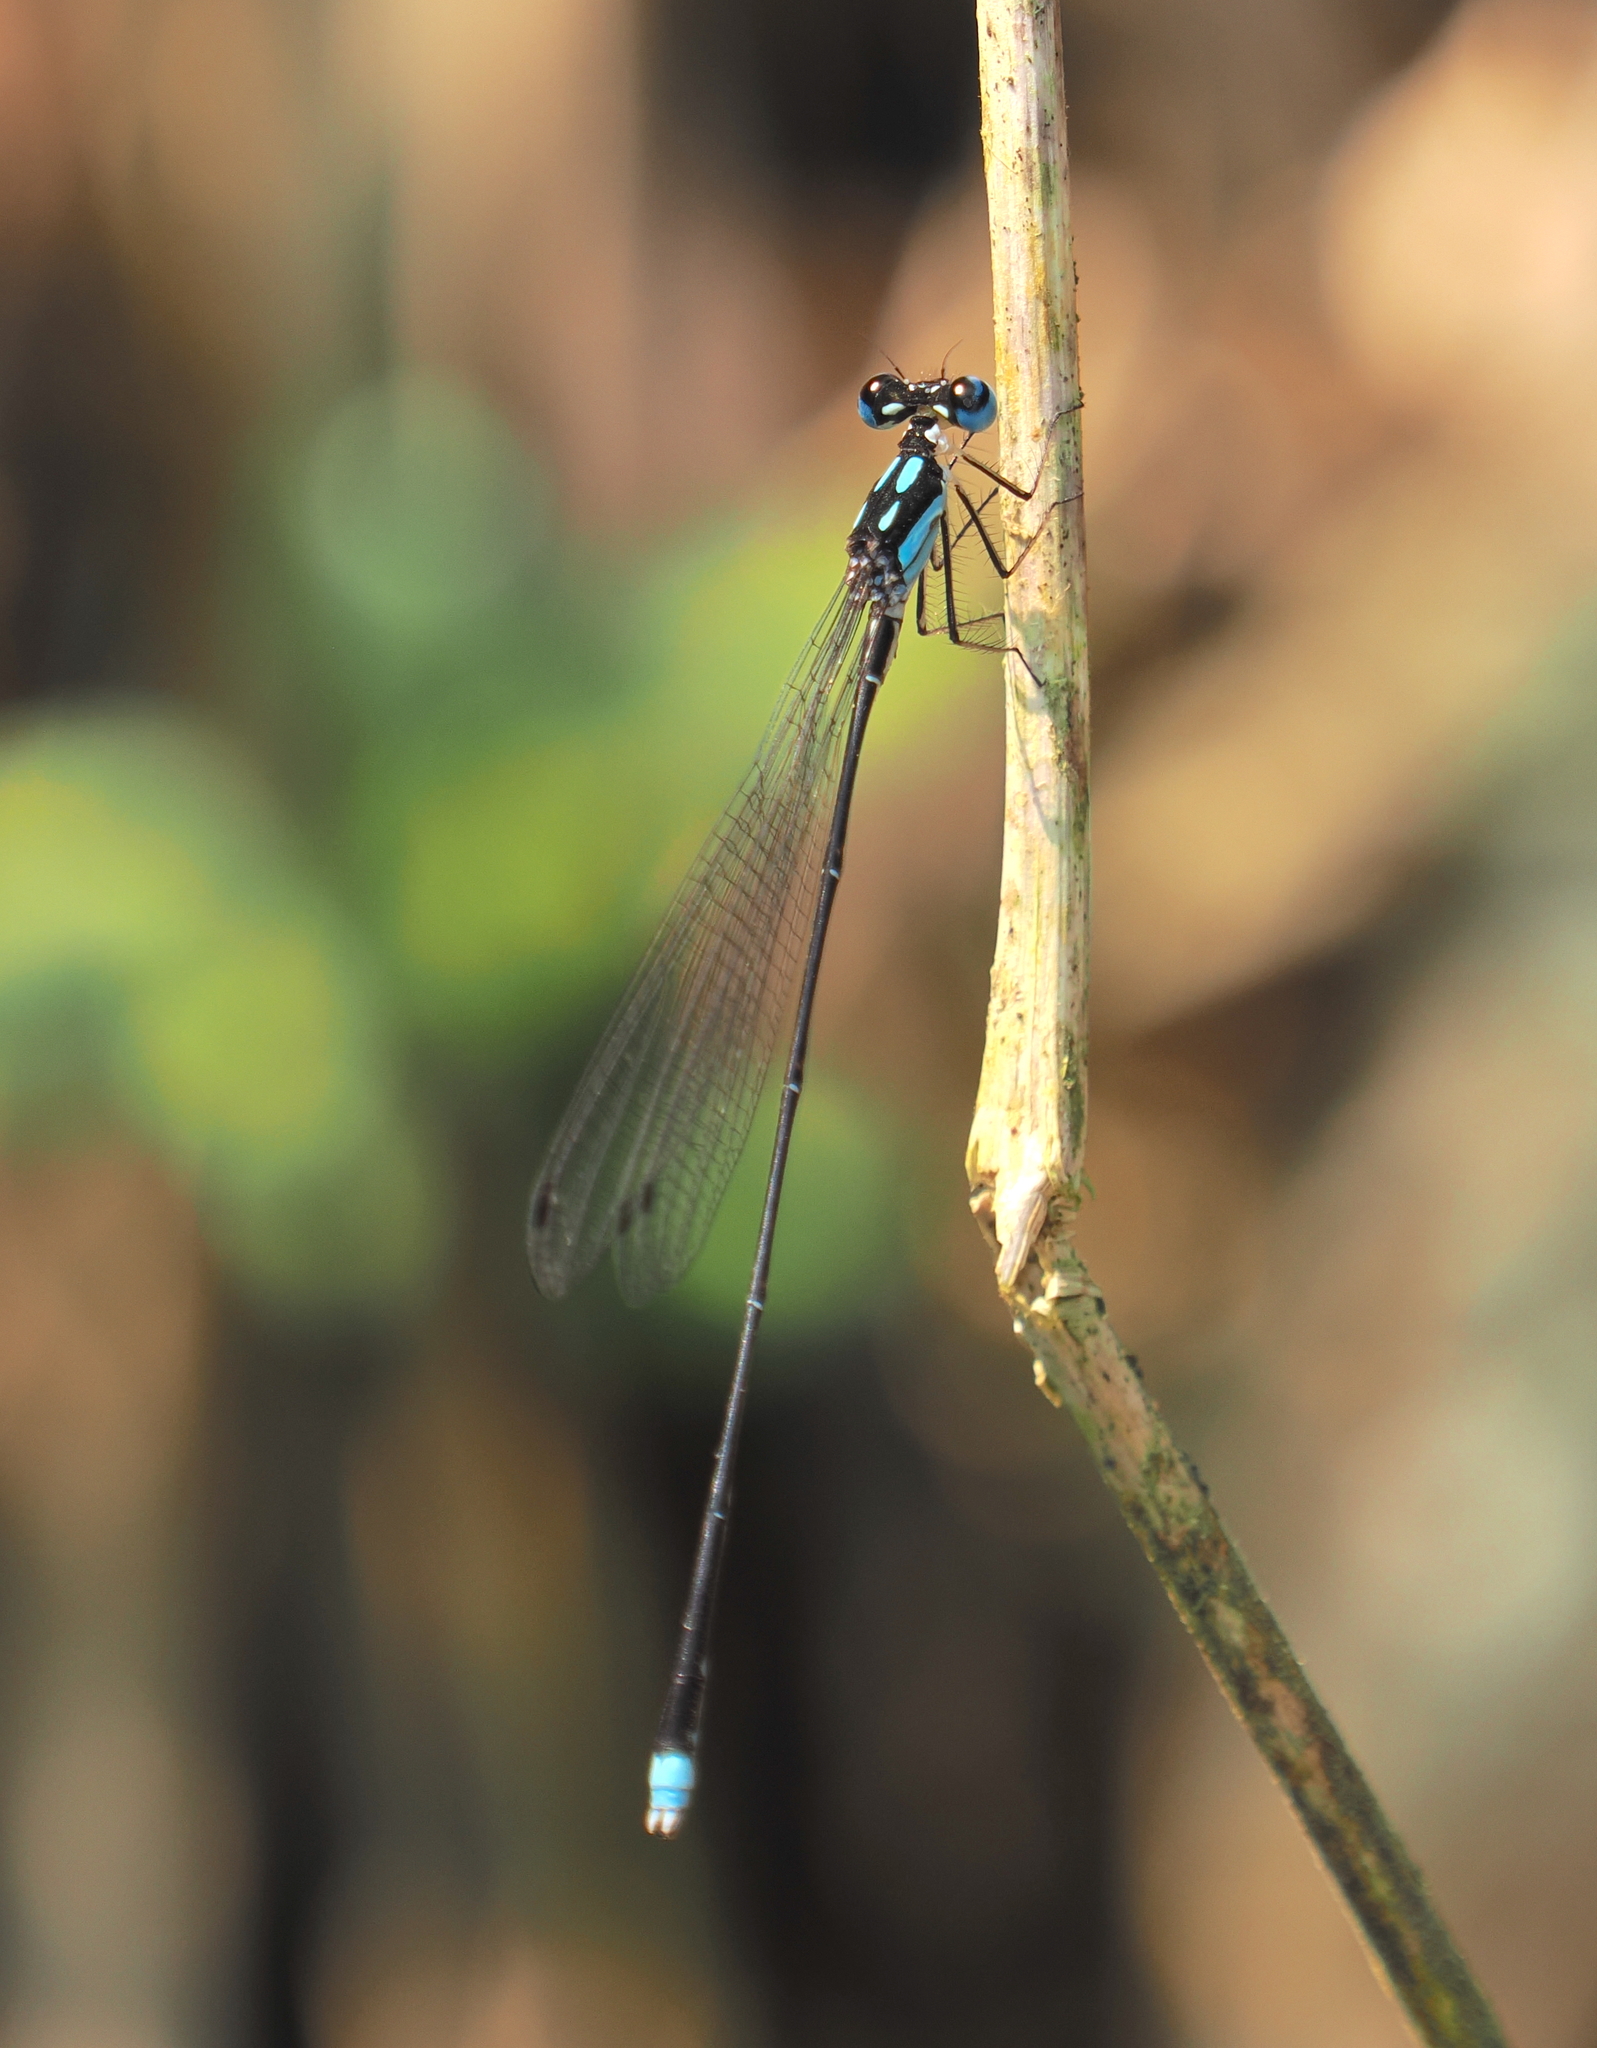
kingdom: Animalia
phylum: Arthropoda
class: Insecta
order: Odonata
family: Platycnemididae
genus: Coeliccia
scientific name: Coeliccia didyma
